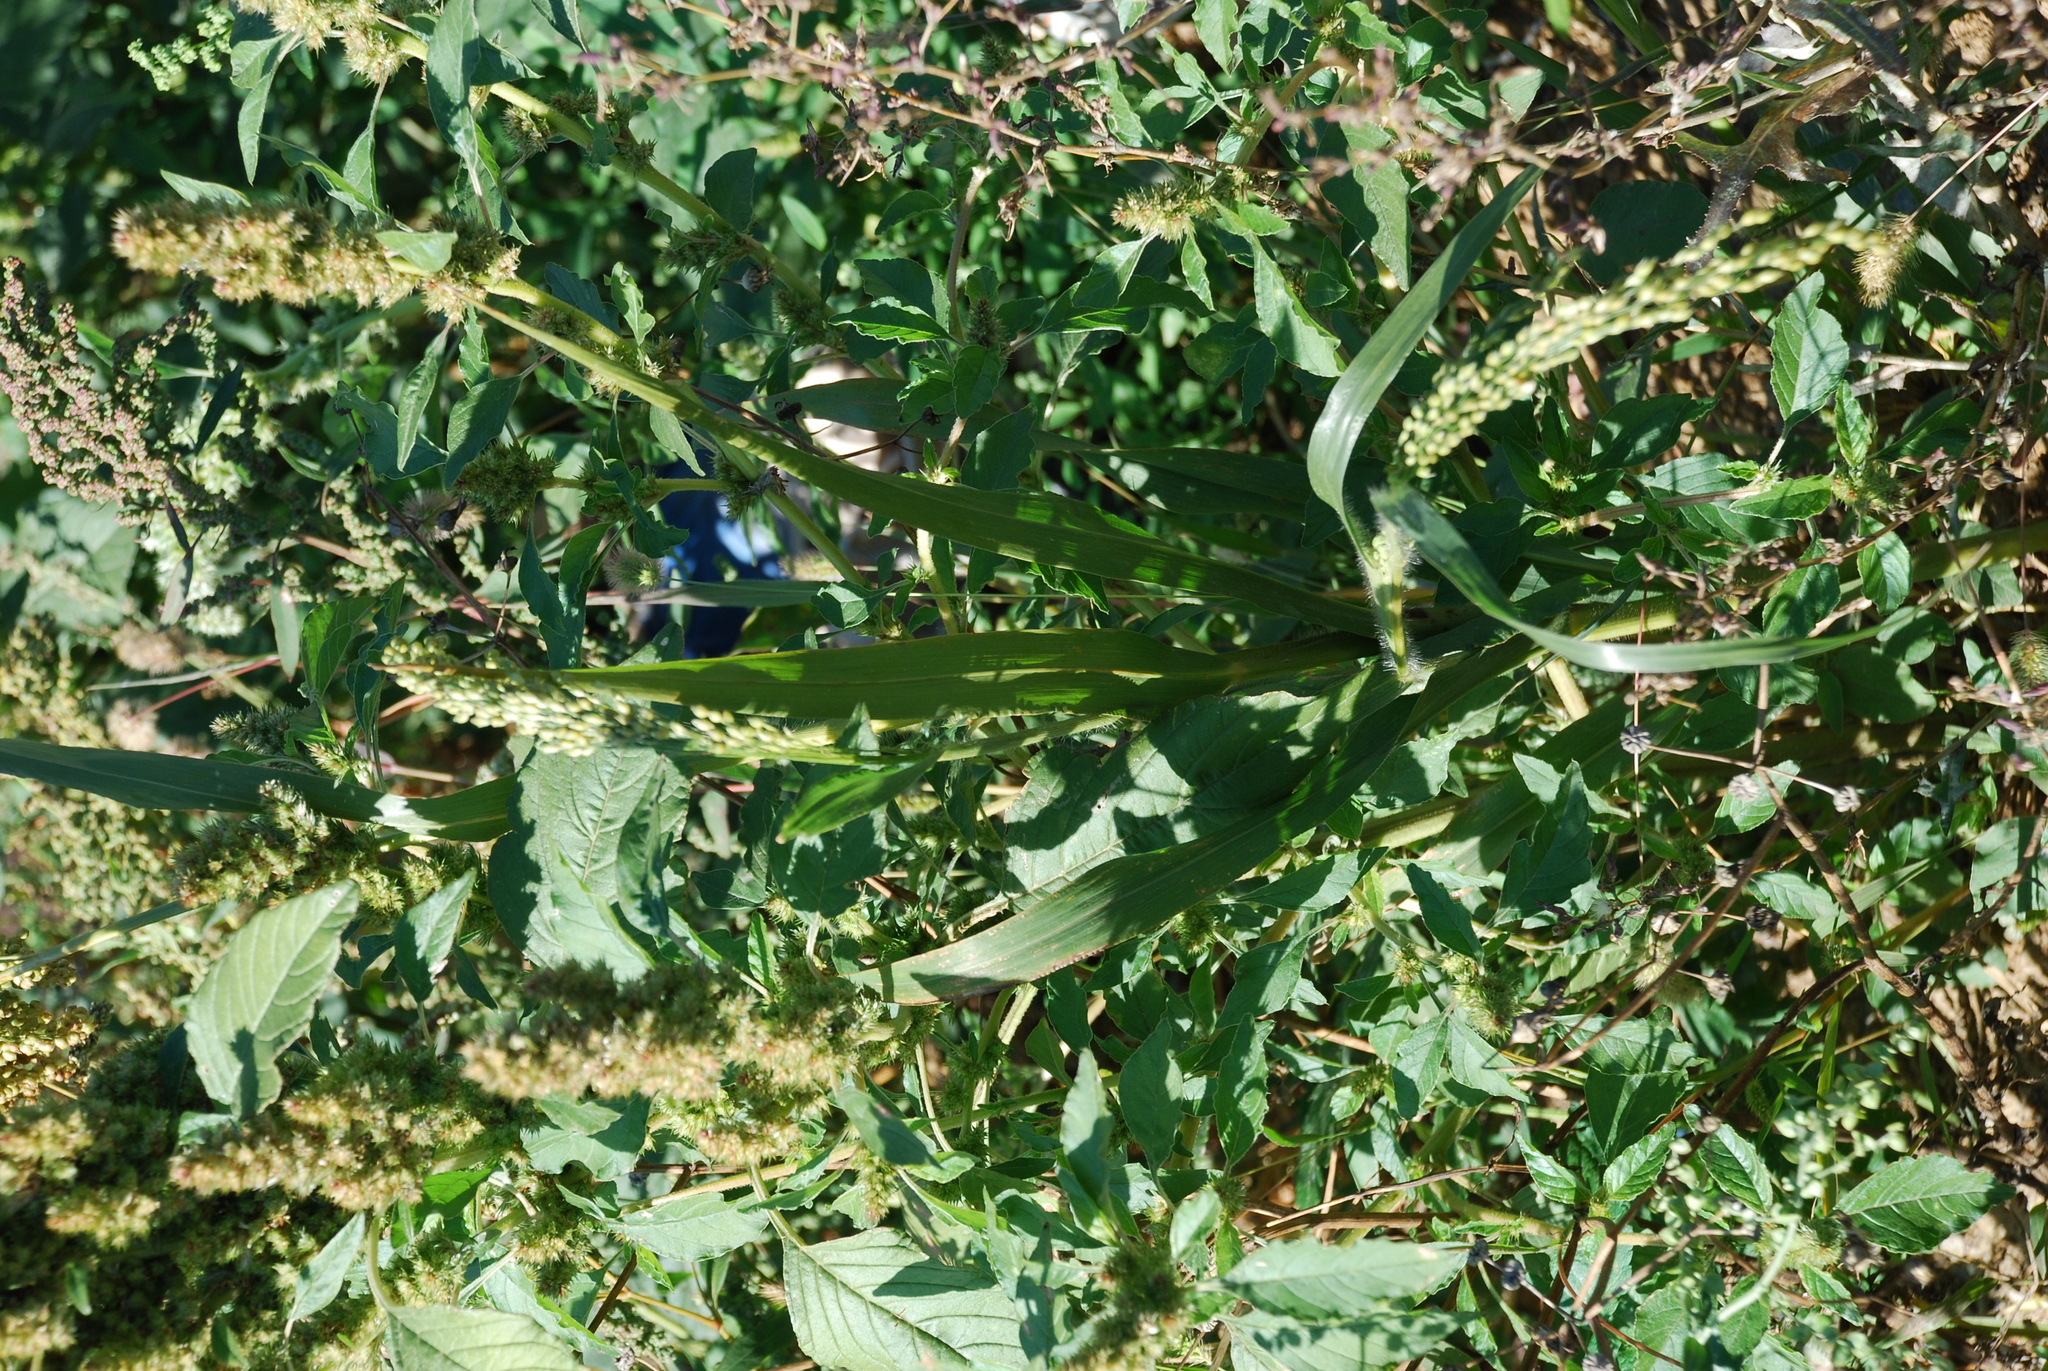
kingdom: Plantae
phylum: Tracheophyta
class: Liliopsida
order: Poales
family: Poaceae
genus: Panicum
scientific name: Panicum miliaceum
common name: Common millet
